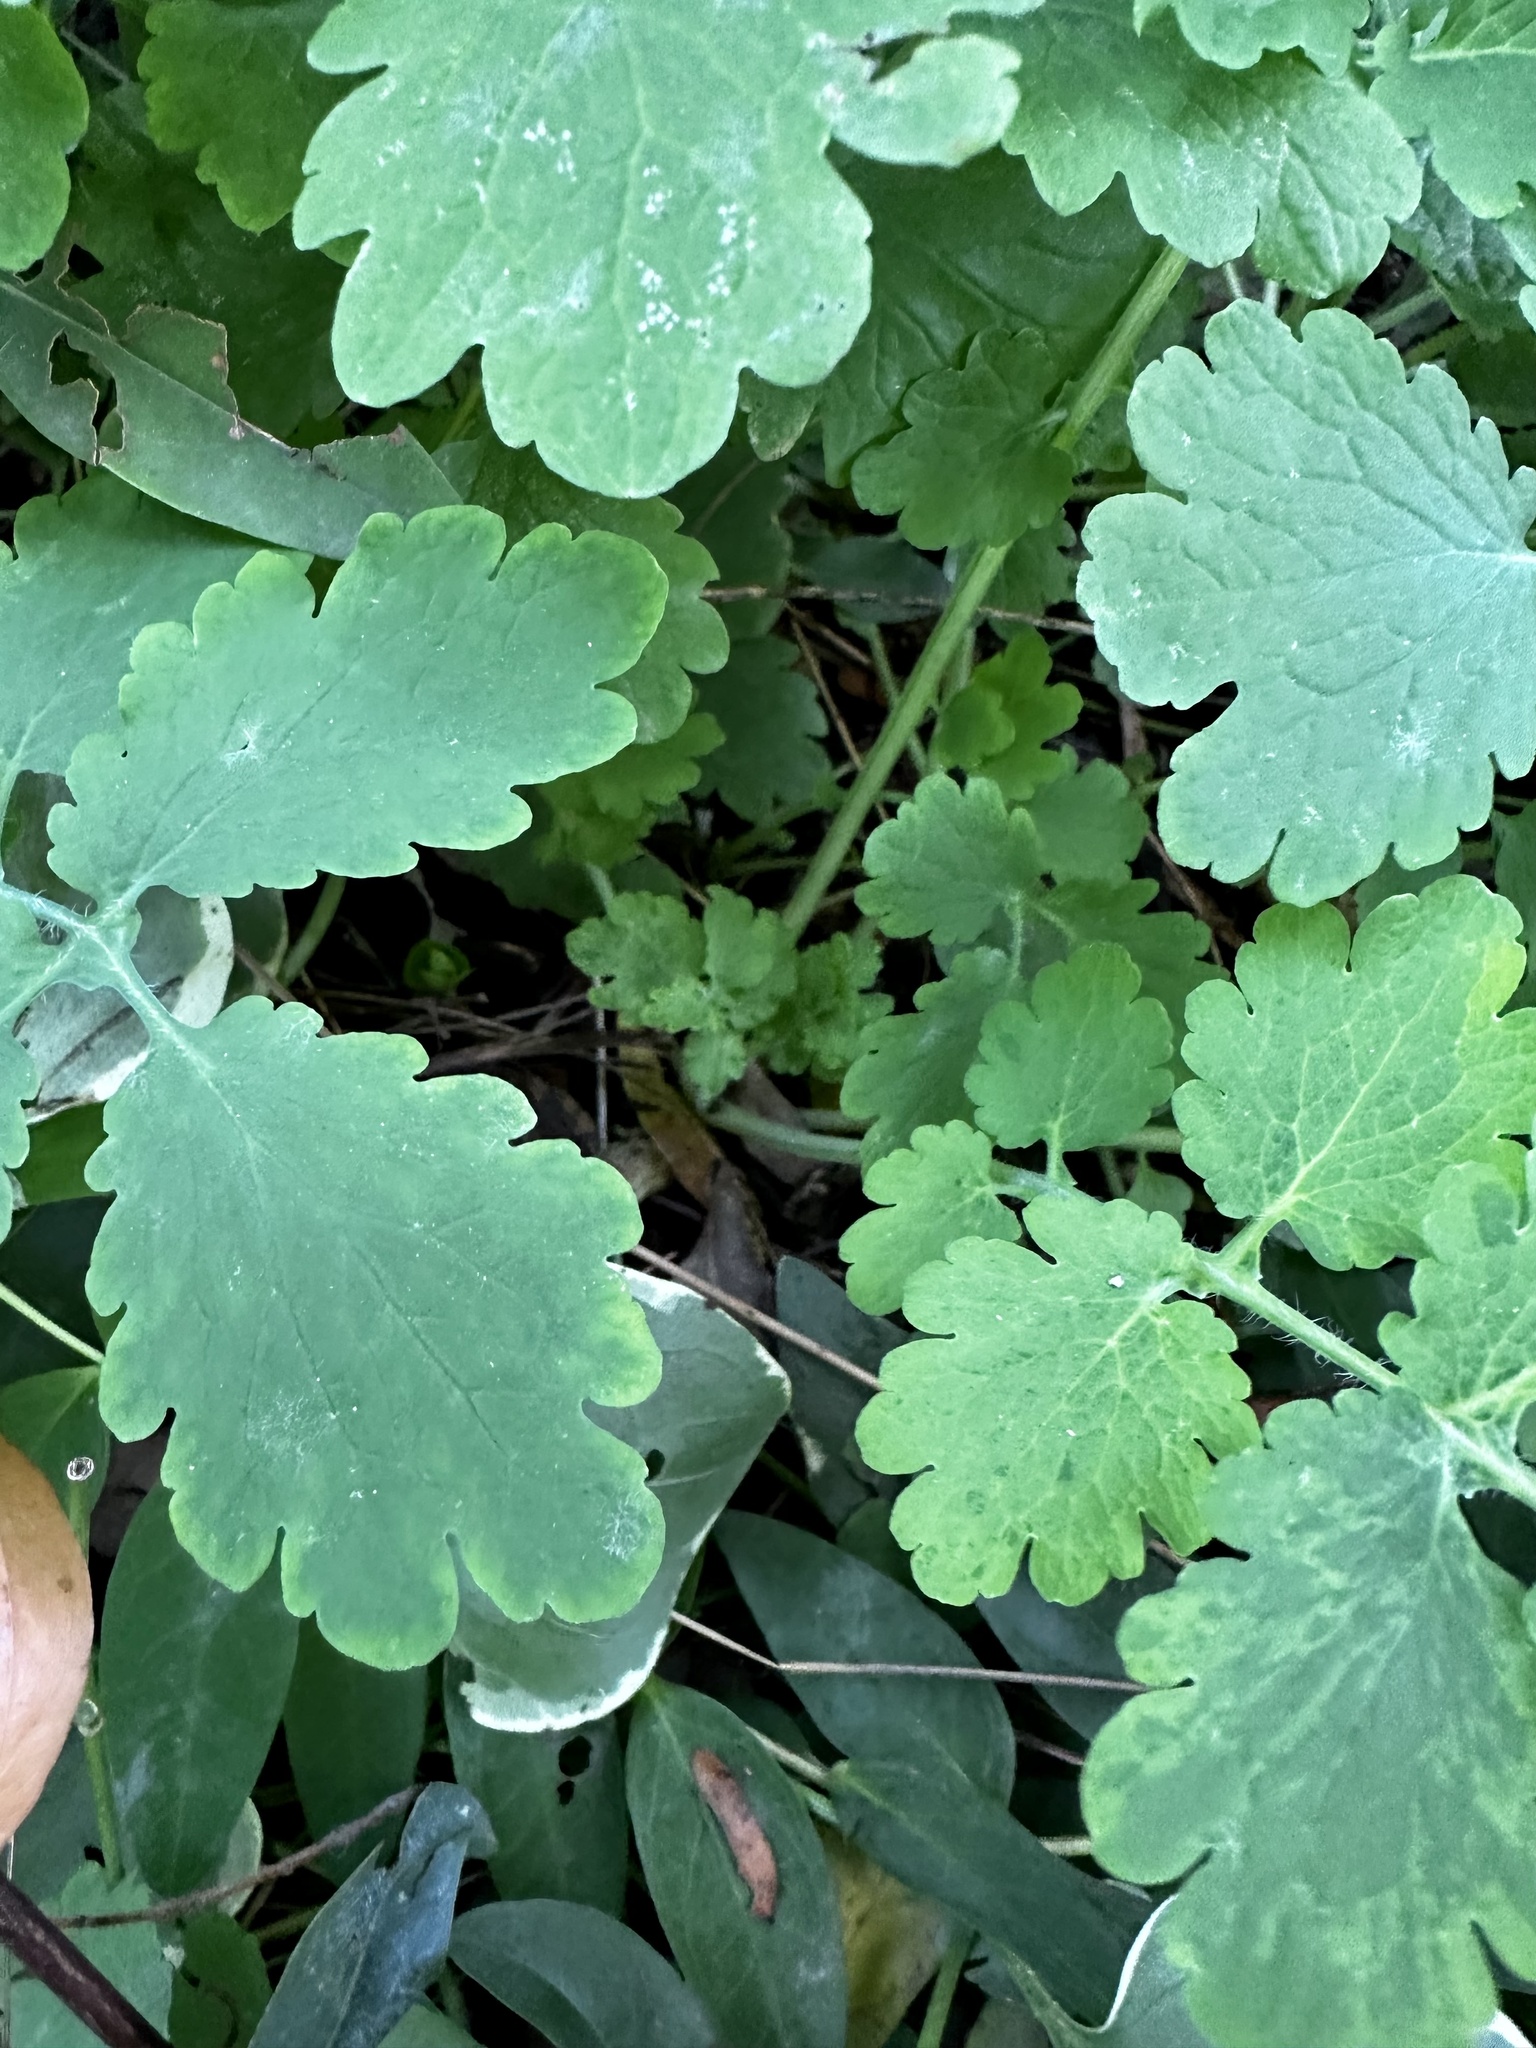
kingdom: Plantae
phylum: Tracheophyta
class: Magnoliopsida
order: Ranunculales
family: Papaveraceae
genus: Chelidonium
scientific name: Chelidonium majus
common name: Greater celandine
